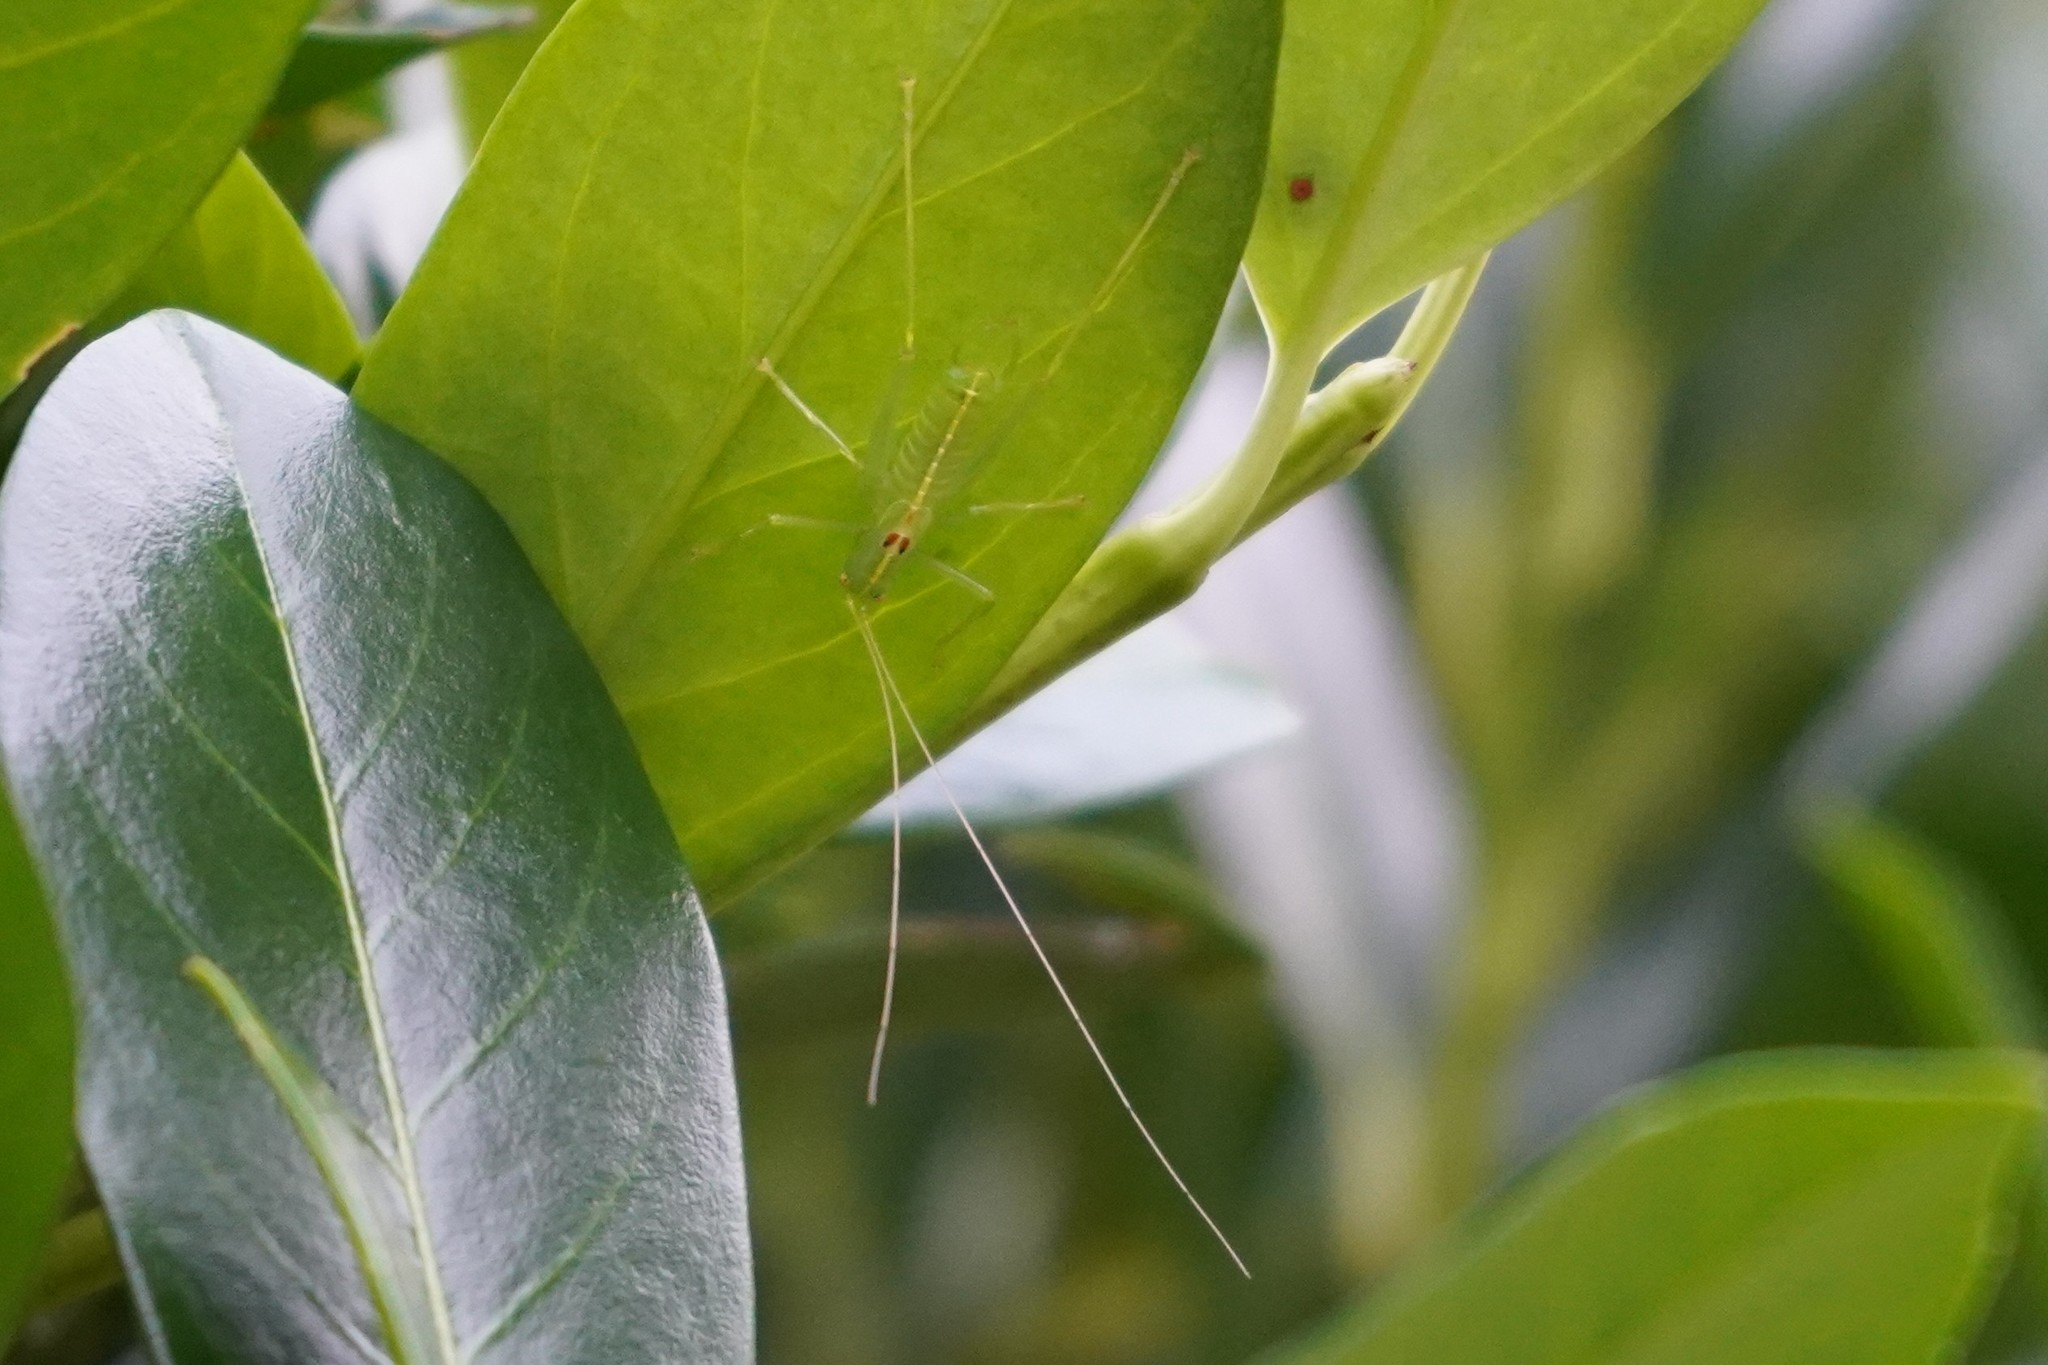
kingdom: Animalia
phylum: Arthropoda
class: Insecta
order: Orthoptera
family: Tettigoniidae
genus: Meconema
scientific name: Meconema meridionale
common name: Southern oak bush-cricket
